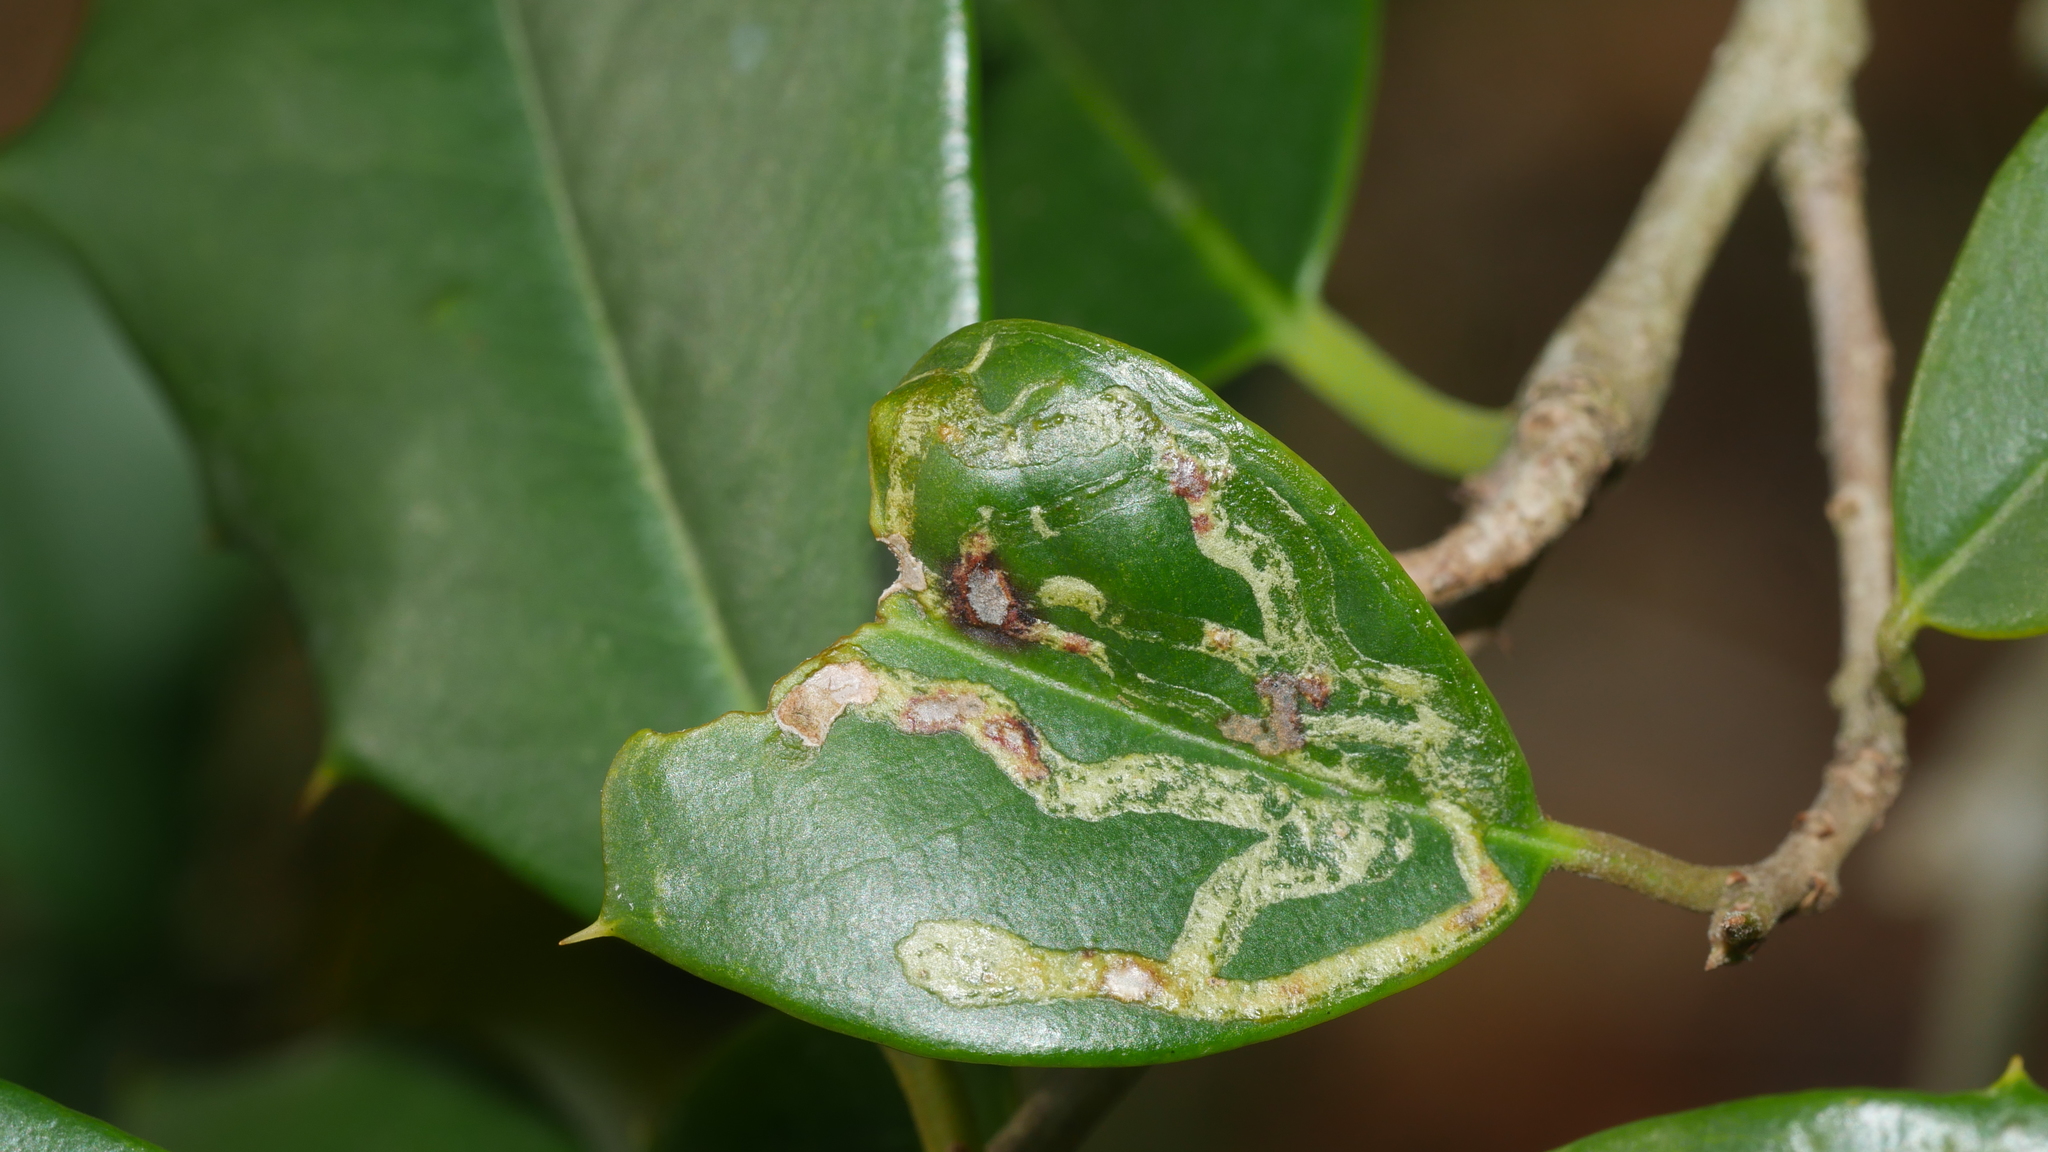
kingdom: Animalia
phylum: Arthropoda
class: Insecta
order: Diptera
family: Agromyzidae
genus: Phytomyza
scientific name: Phytomyza opacae
